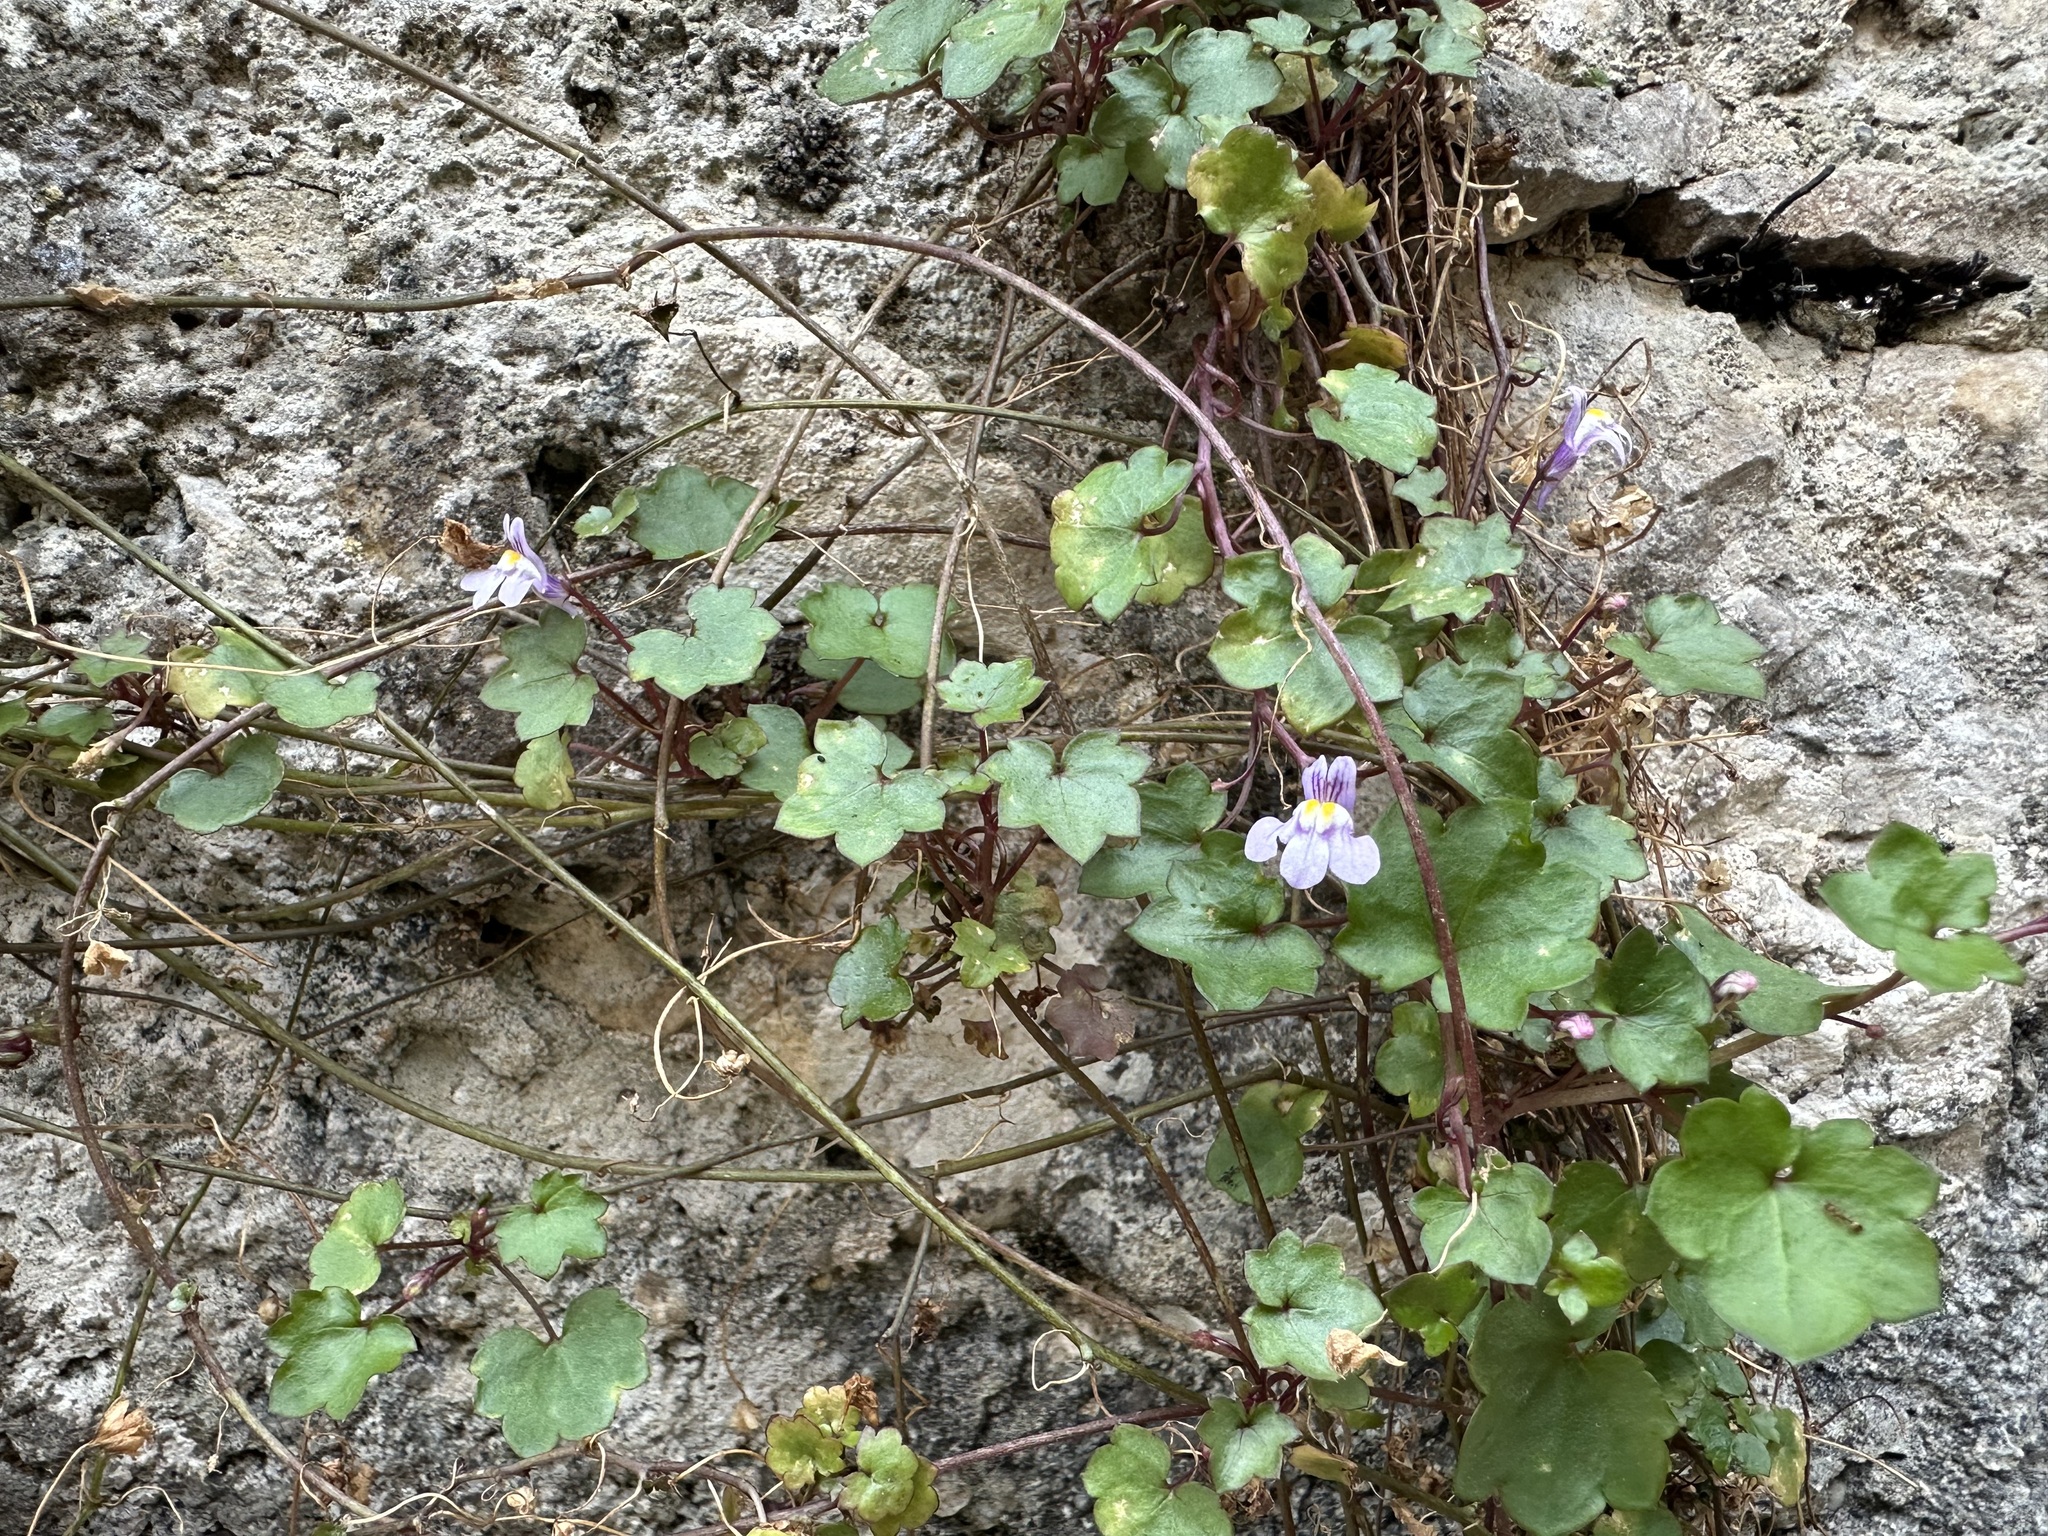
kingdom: Plantae
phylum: Tracheophyta
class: Magnoliopsida
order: Lamiales
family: Plantaginaceae
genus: Cymbalaria
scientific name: Cymbalaria muralis
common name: Ivy-leaved toadflax
